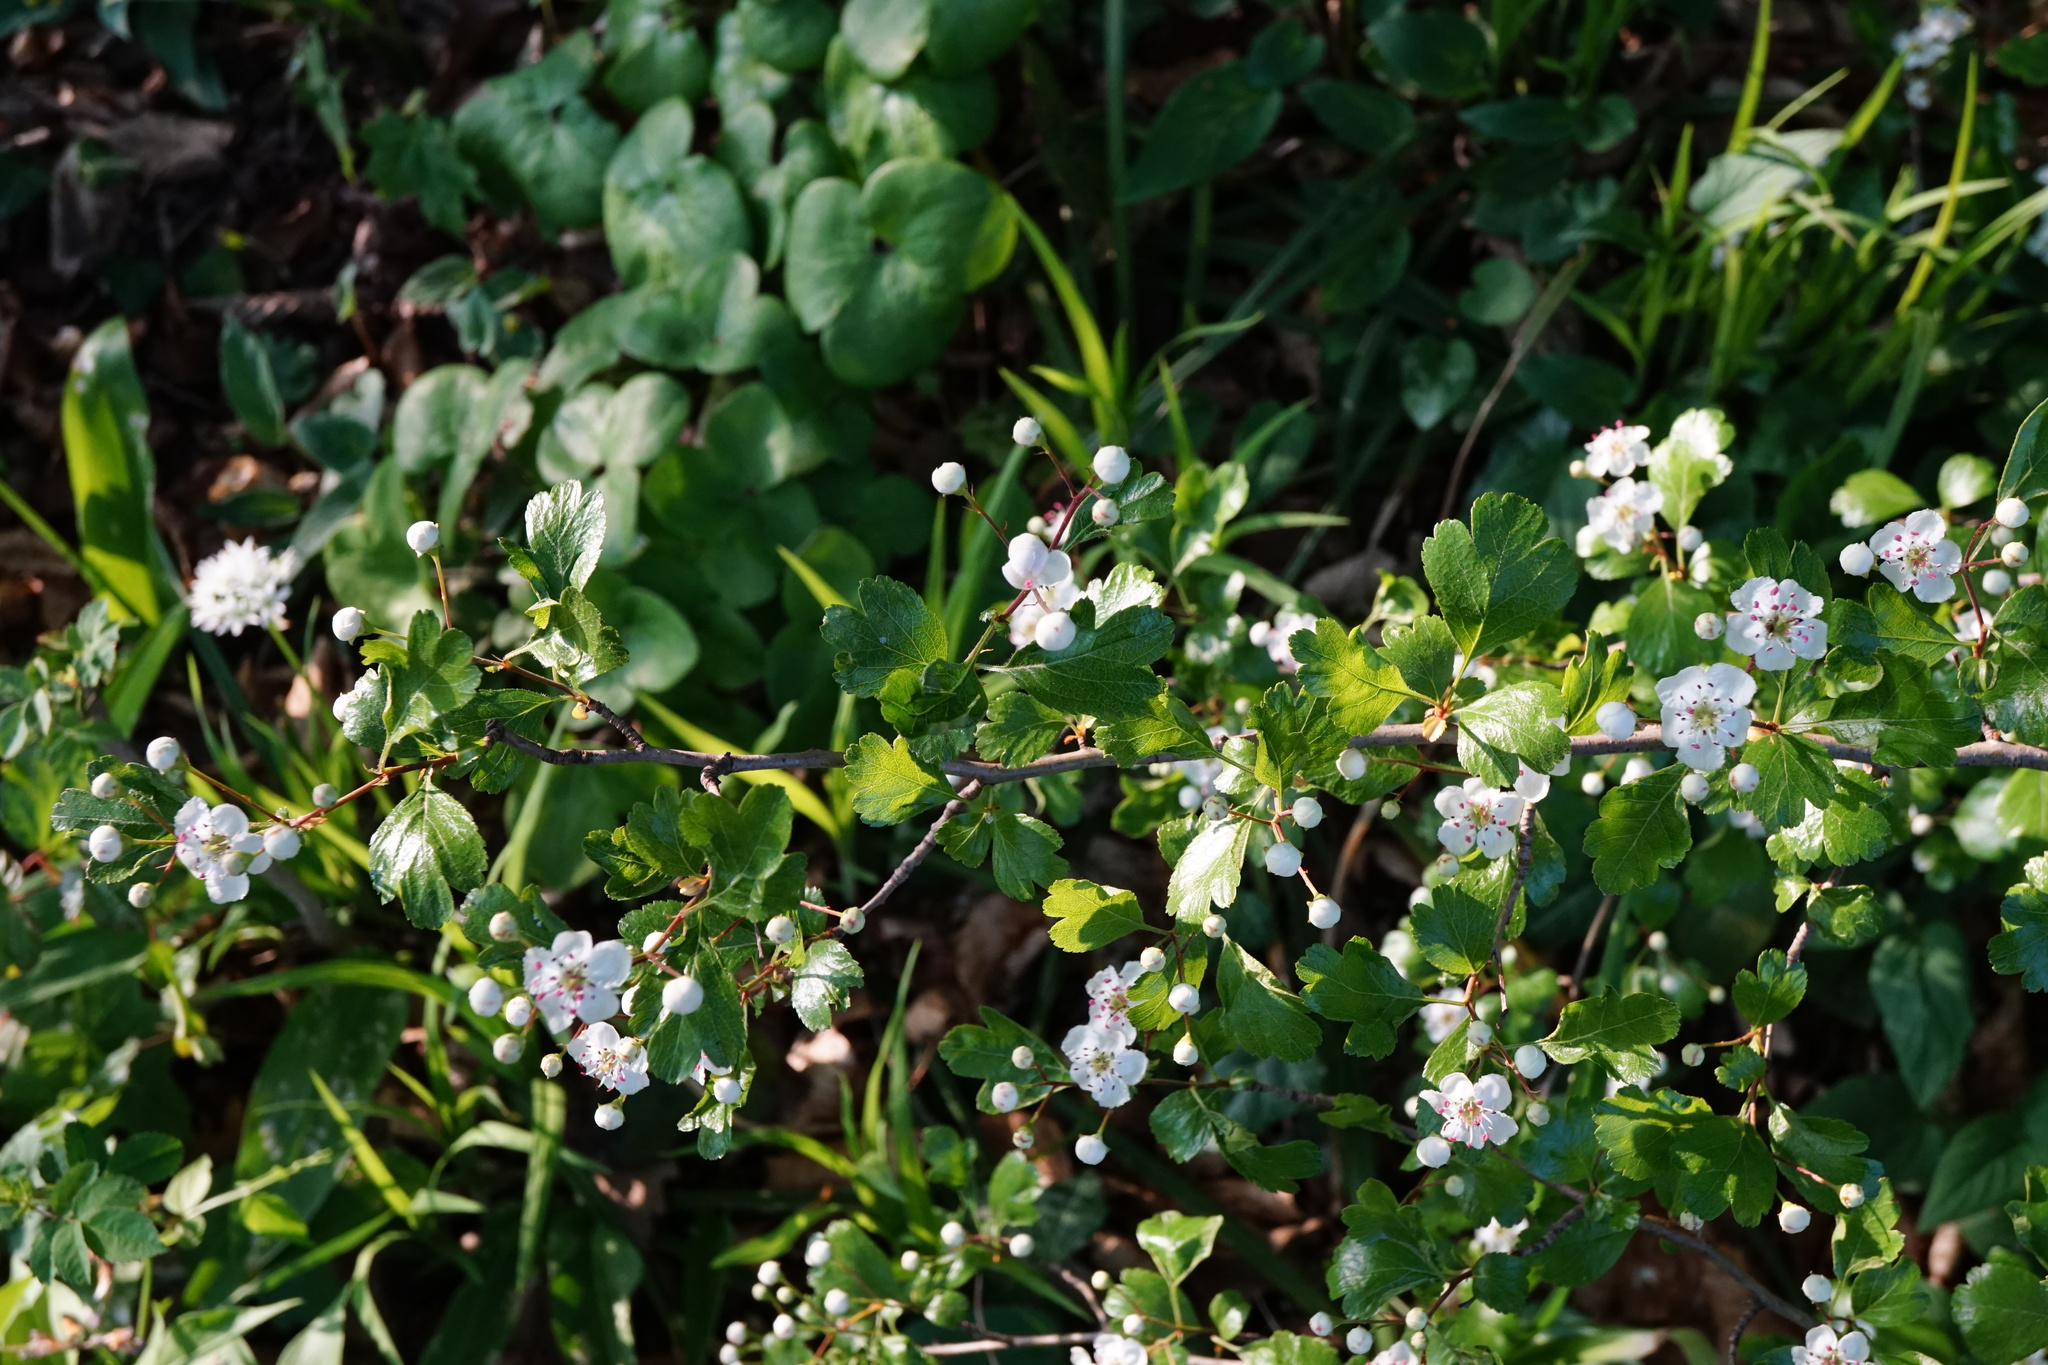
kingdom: Plantae
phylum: Tracheophyta
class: Magnoliopsida
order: Rosales
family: Rosaceae
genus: Crataegus
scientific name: Crataegus laevigata
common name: Midland hawthorn
